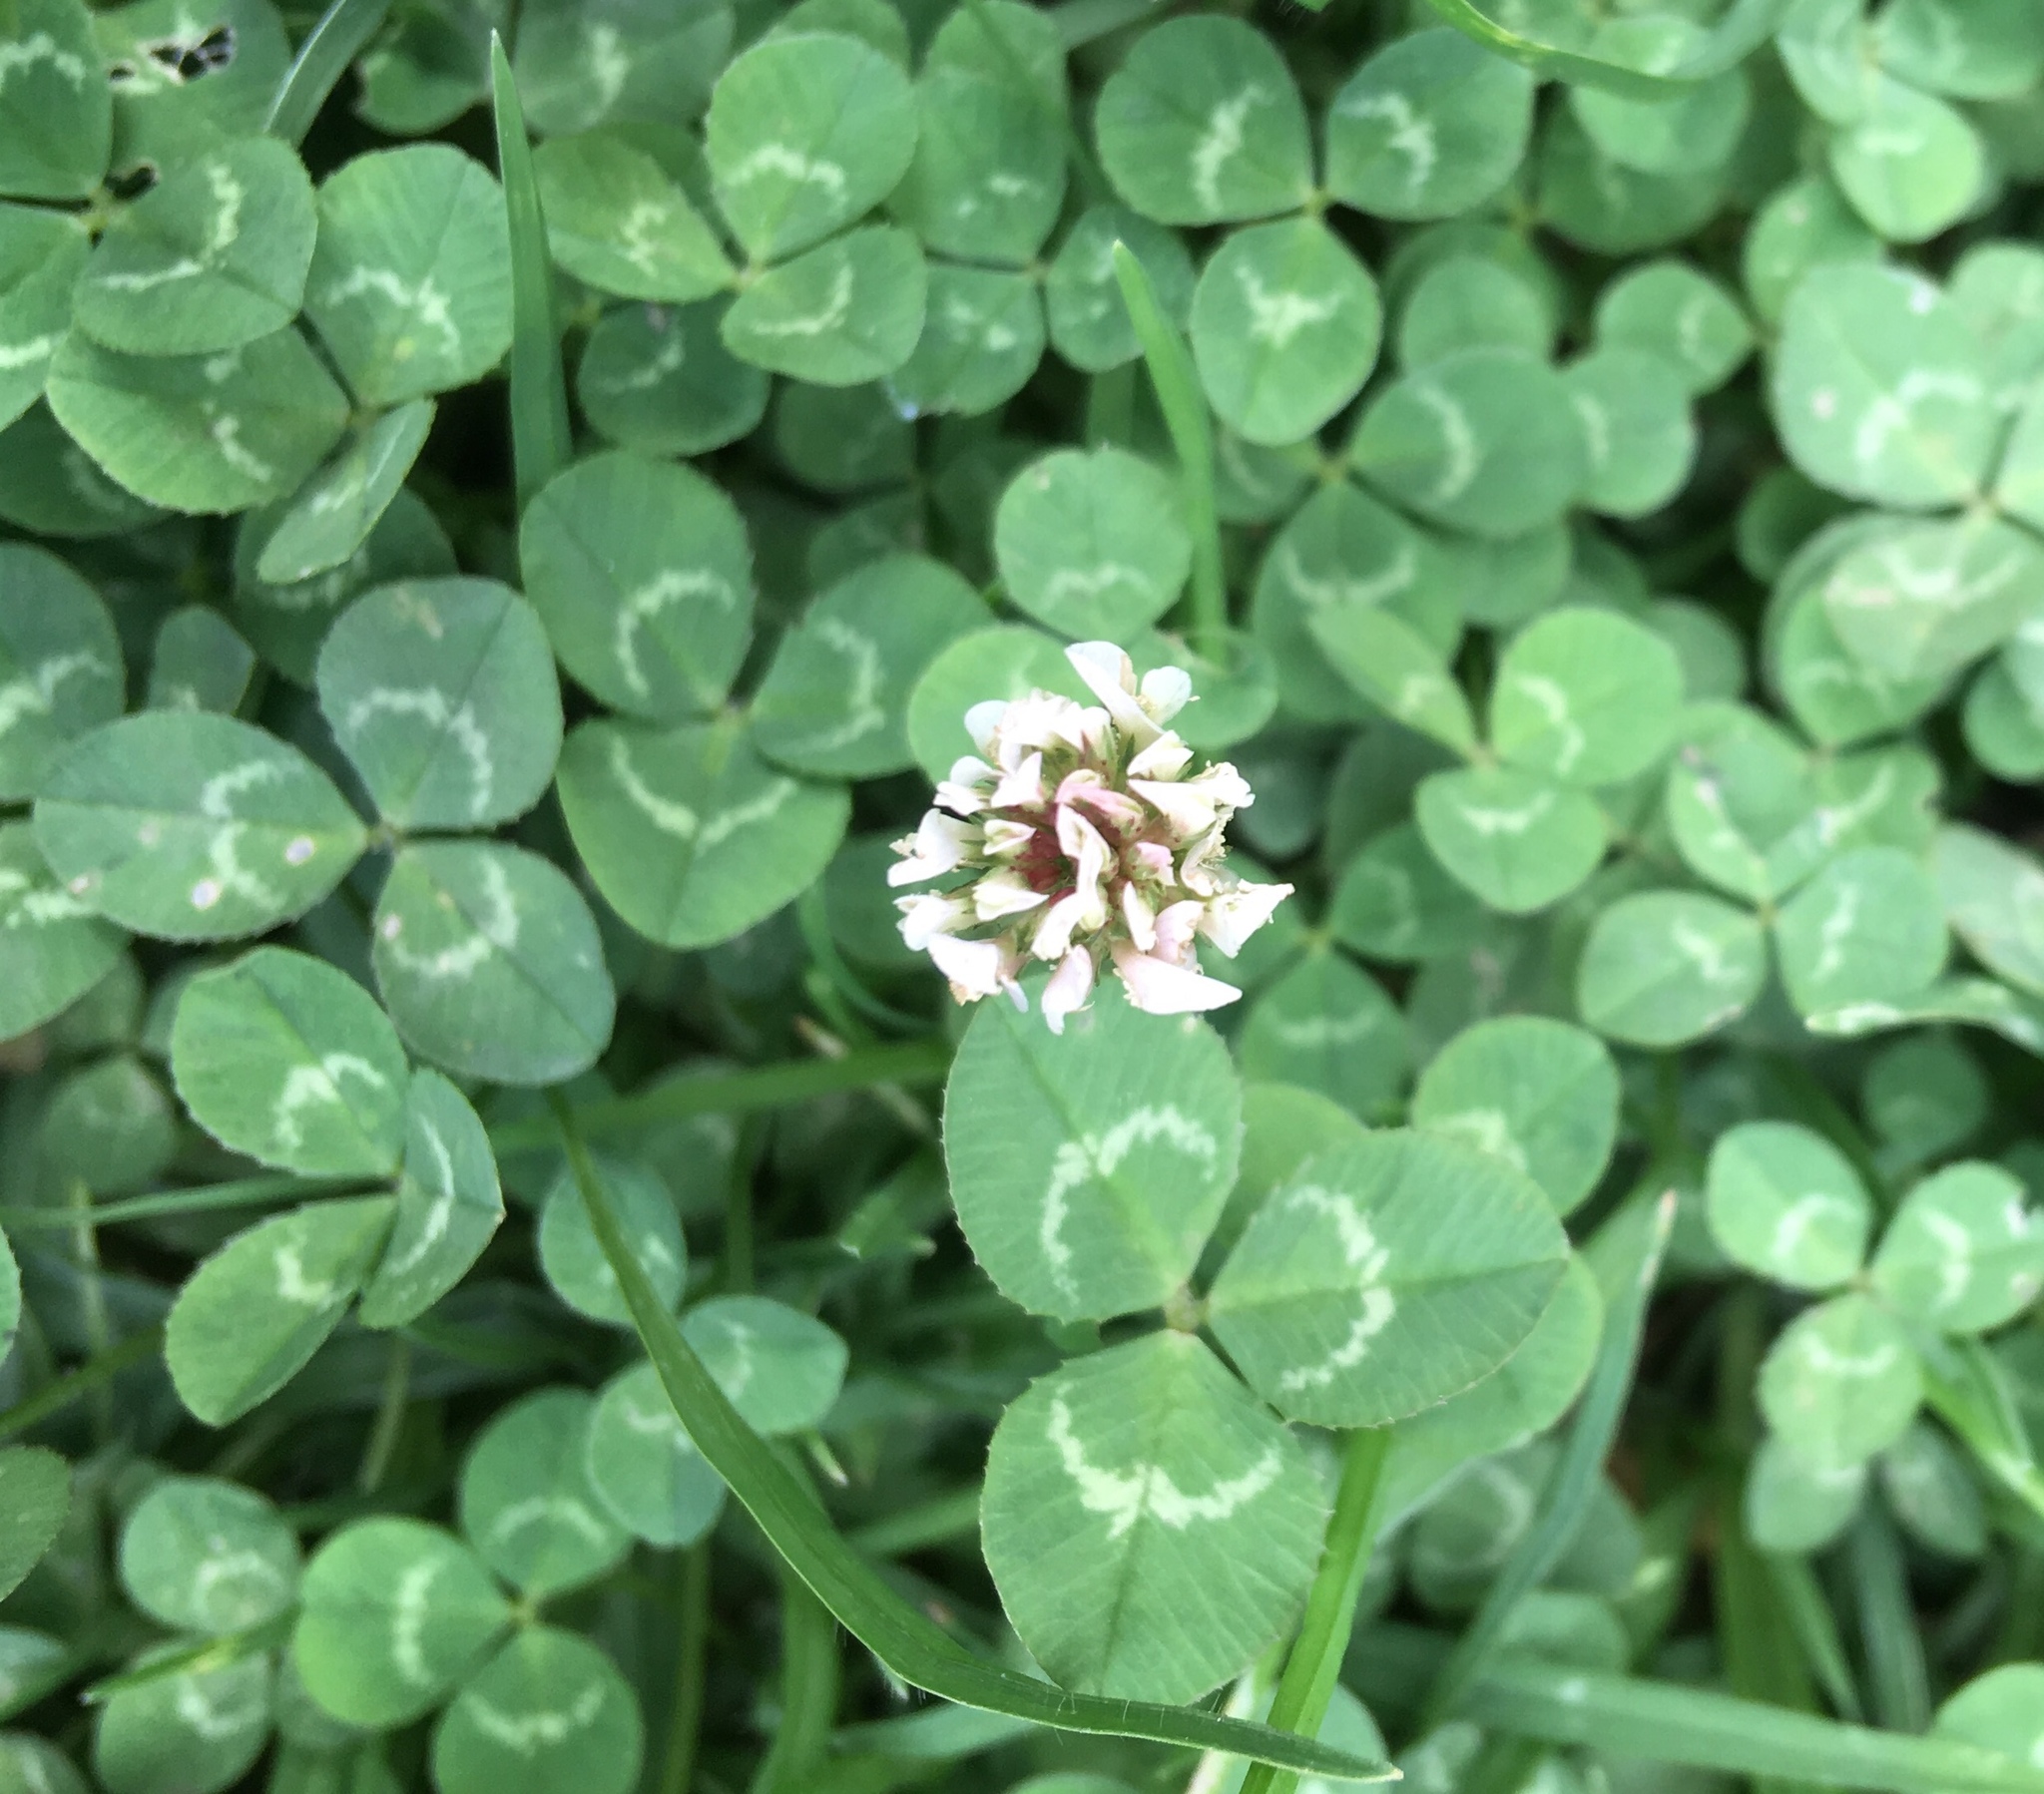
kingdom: Plantae
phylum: Tracheophyta
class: Magnoliopsida
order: Fabales
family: Fabaceae
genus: Trifolium
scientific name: Trifolium repens
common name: White clover
